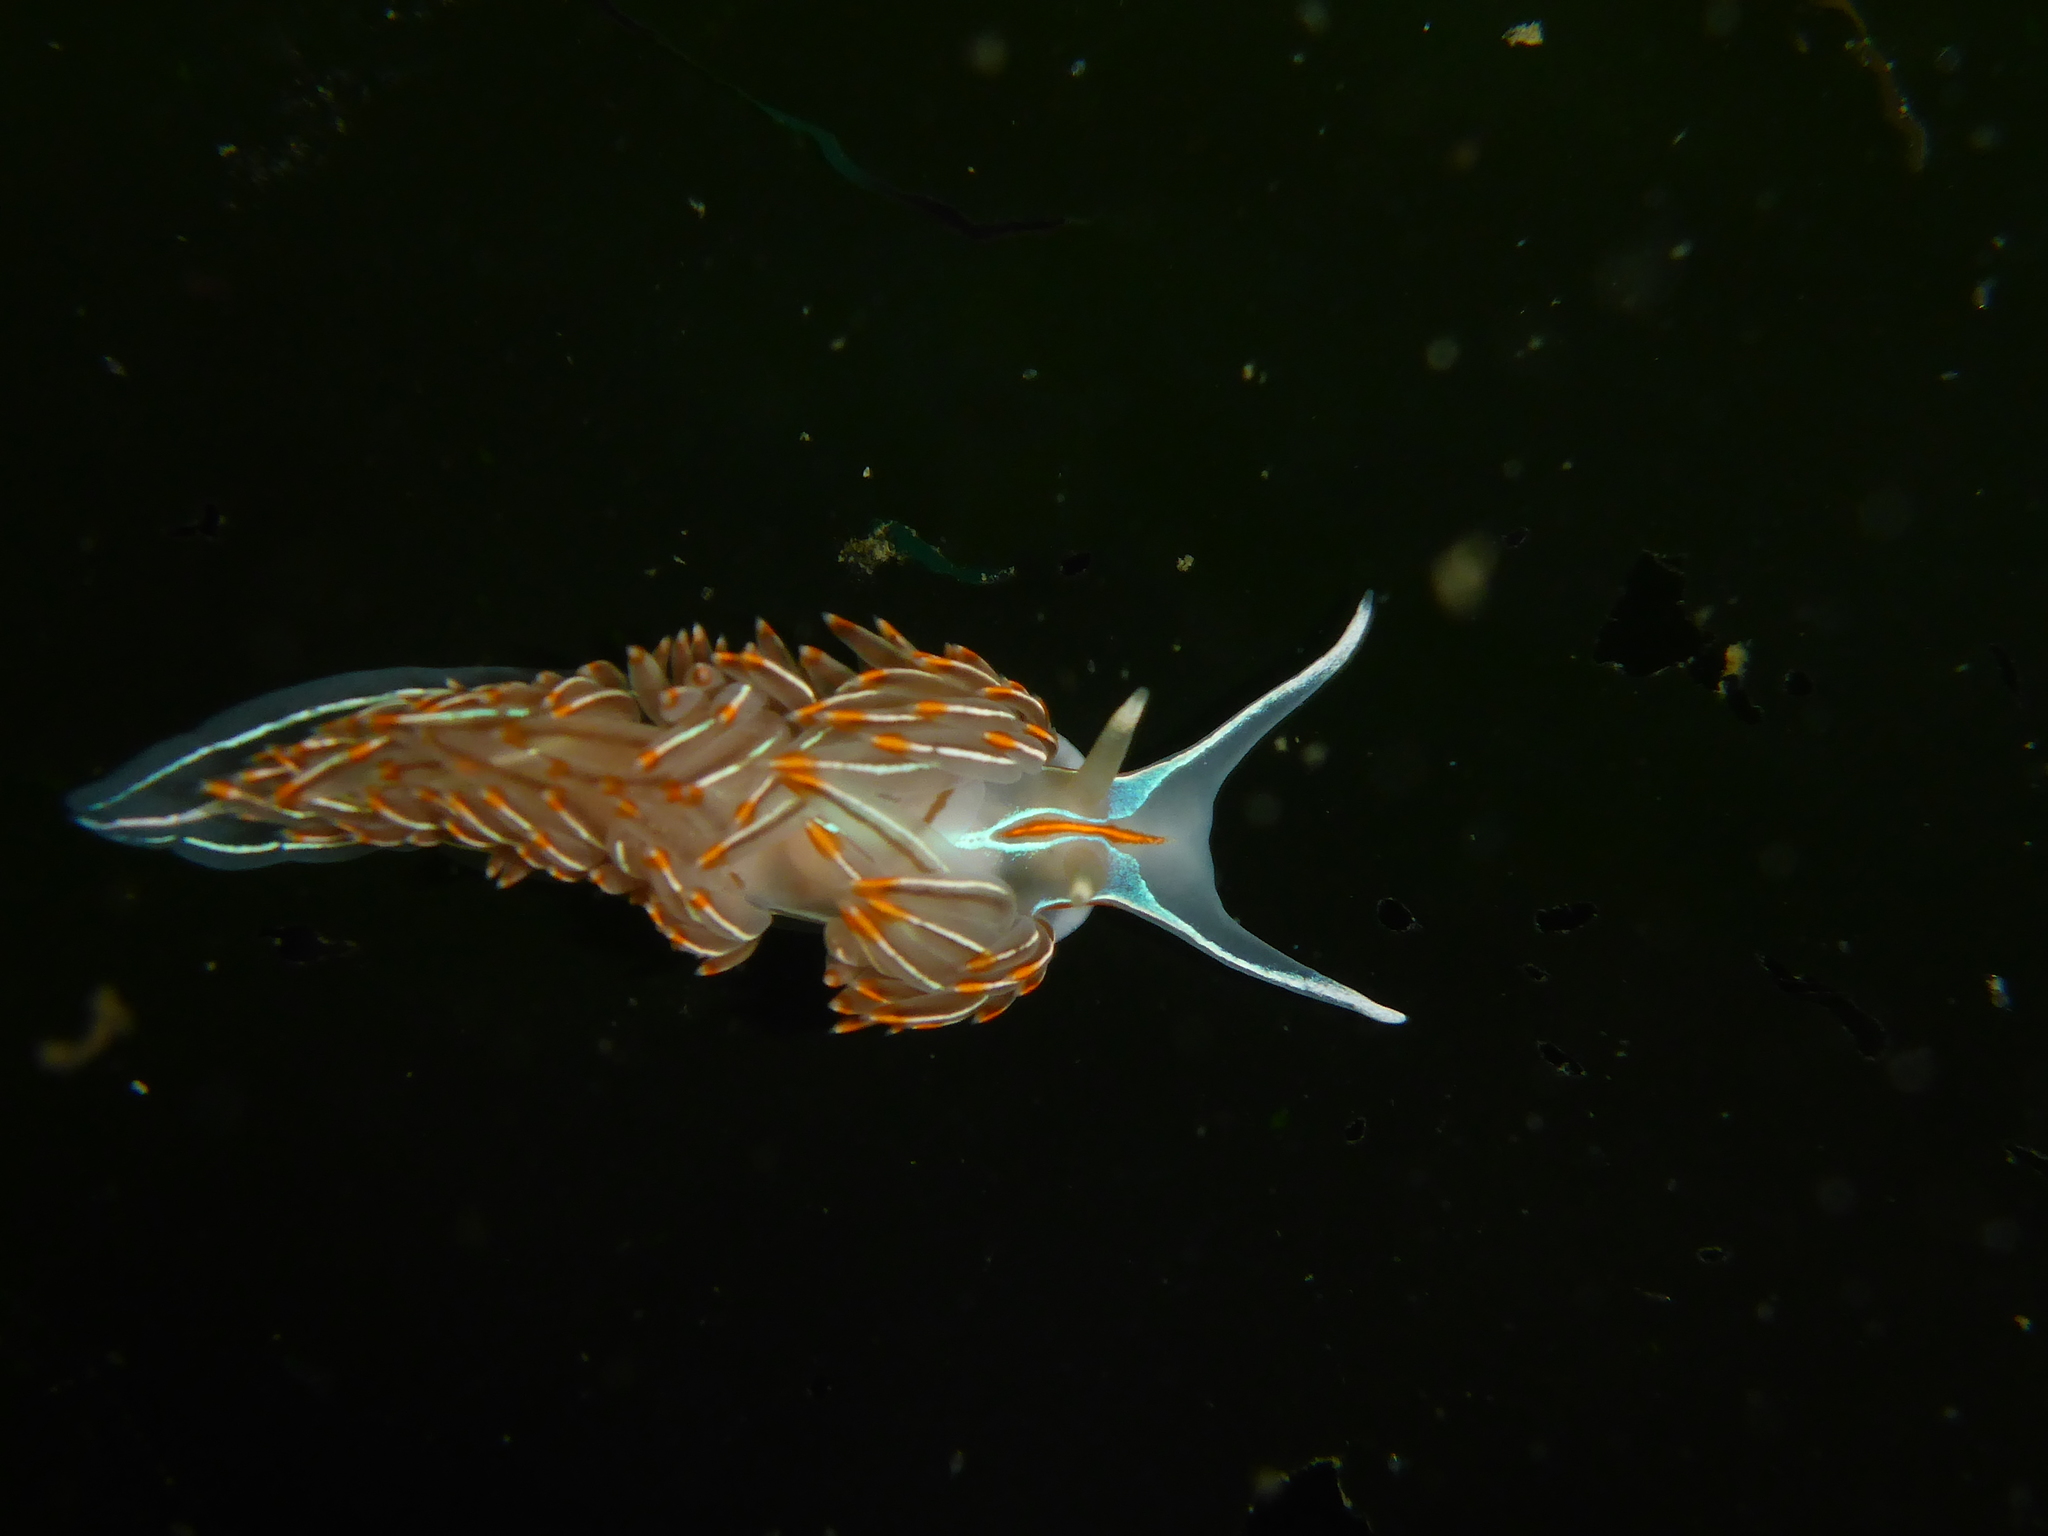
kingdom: Animalia
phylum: Mollusca
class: Gastropoda
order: Nudibranchia
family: Myrrhinidae
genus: Hermissenda
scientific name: Hermissenda crassicornis
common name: Hermissenda
